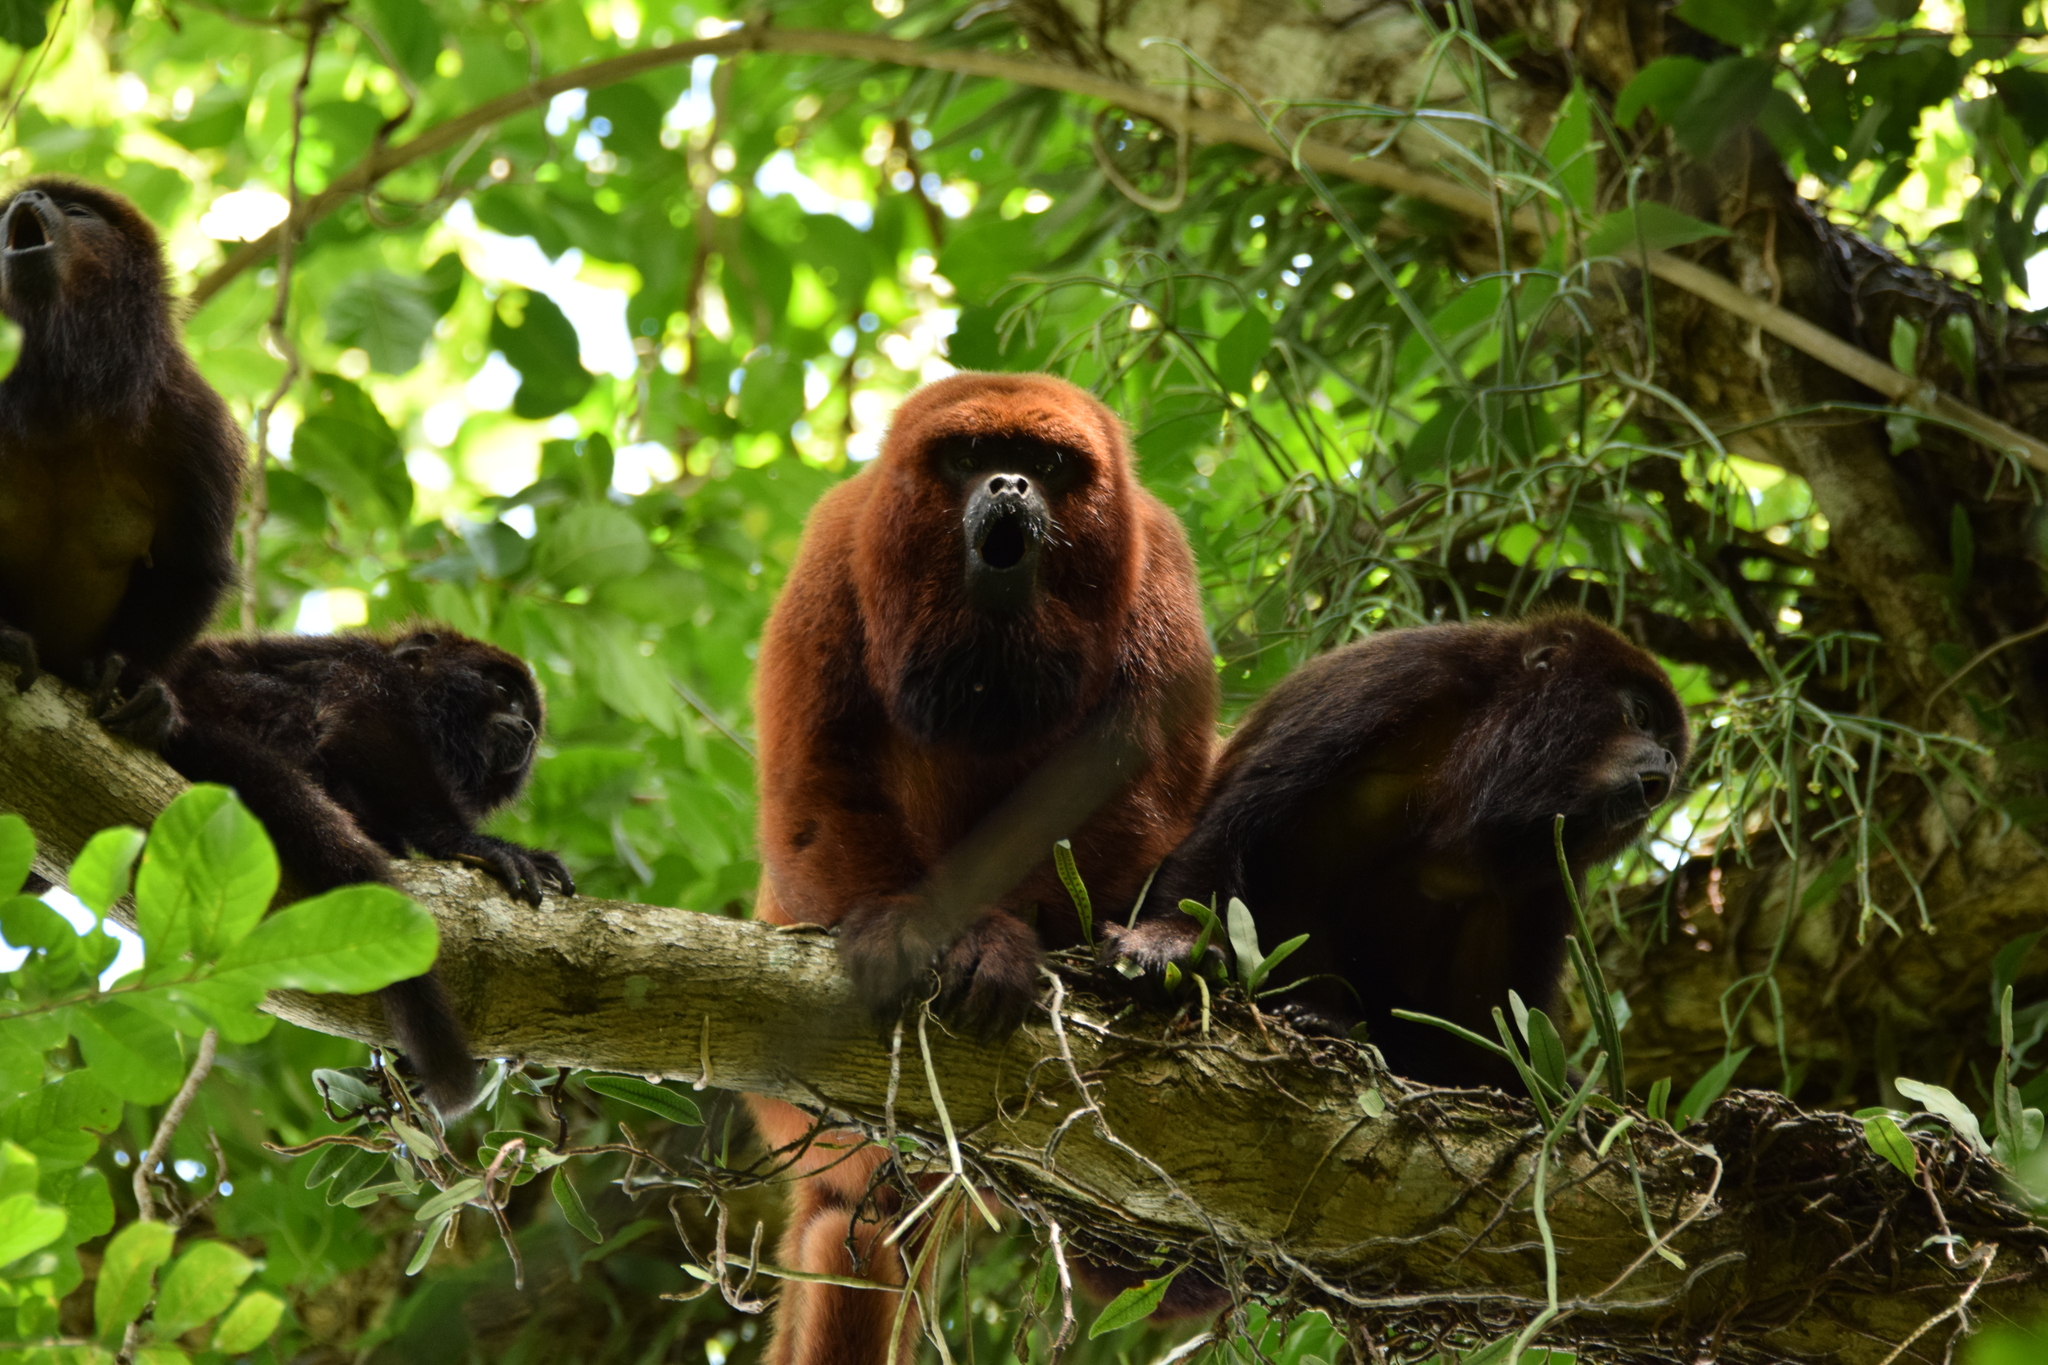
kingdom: Animalia
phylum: Chordata
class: Mammalia
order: Primates
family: Atelidae
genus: Alouatta
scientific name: Alouatta guariba
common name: Brown howler monkey
